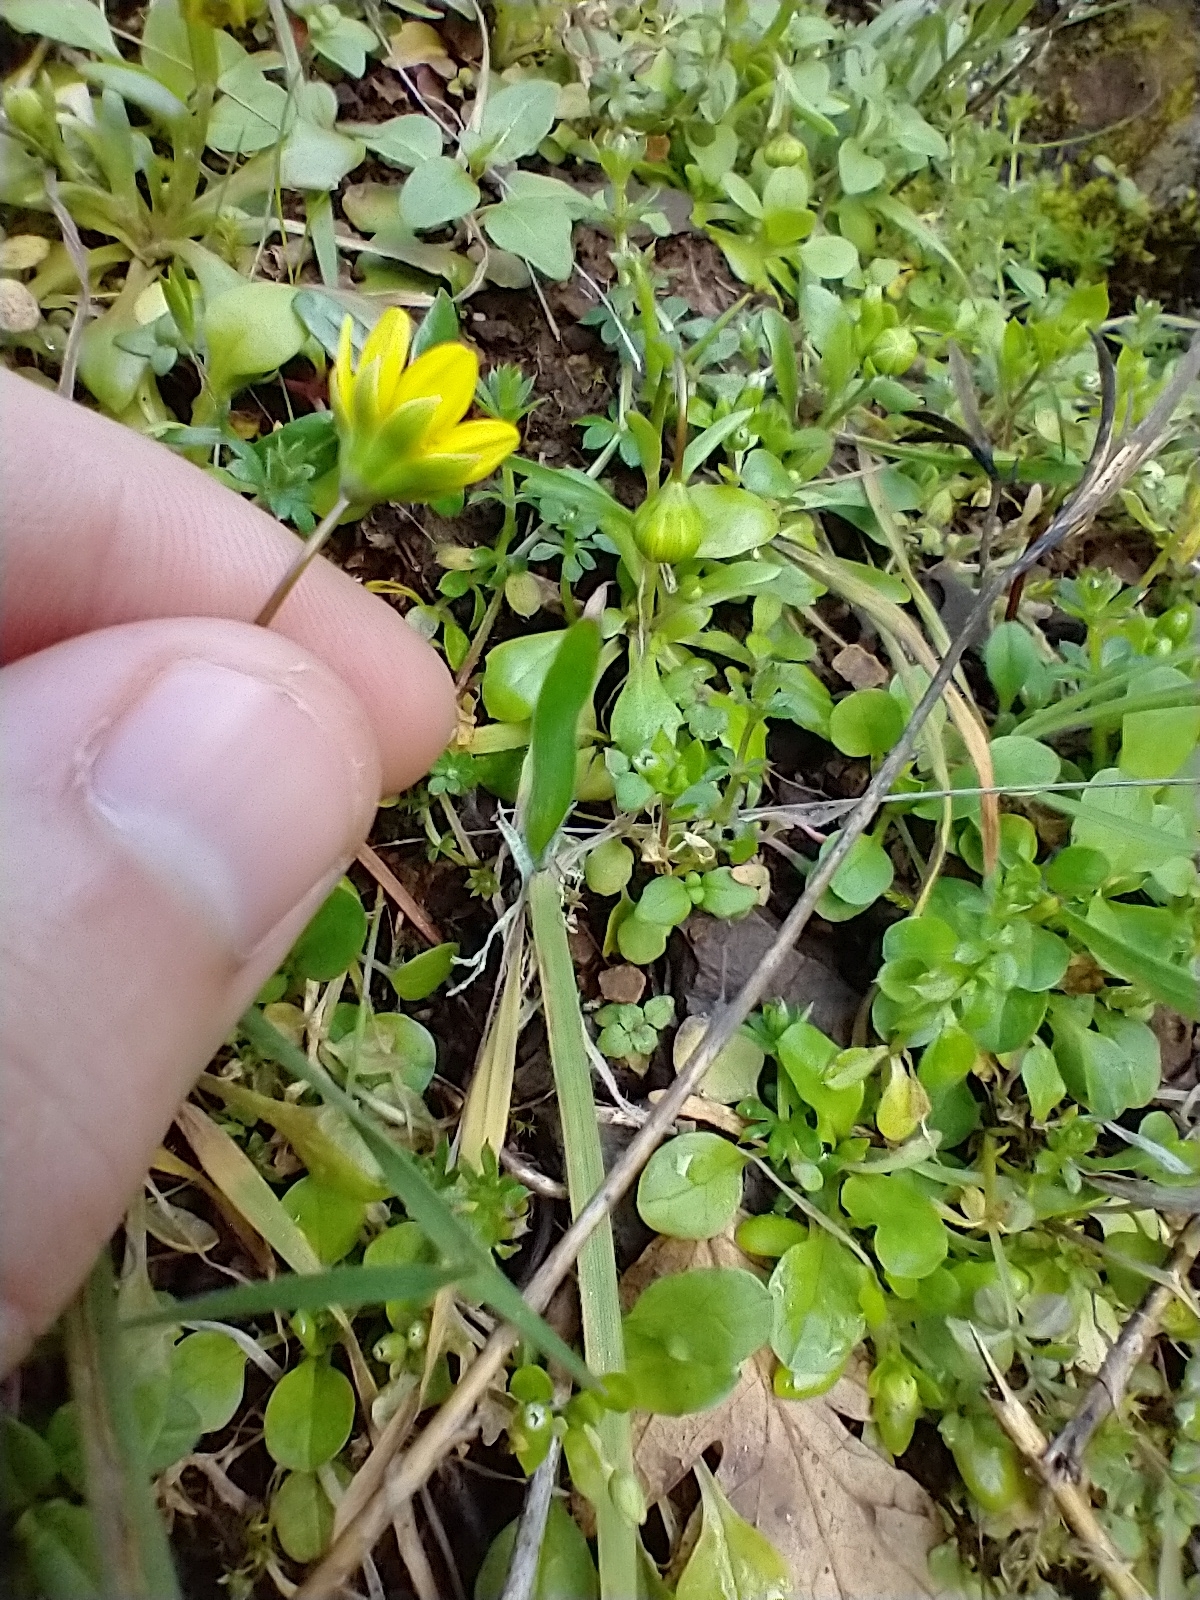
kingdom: Plantae
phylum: Tracheophyta
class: Magnoliopsida
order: Asterales
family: Asteraceae
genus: Crocidium
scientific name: Crocidium multicaule
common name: Common spring gold
